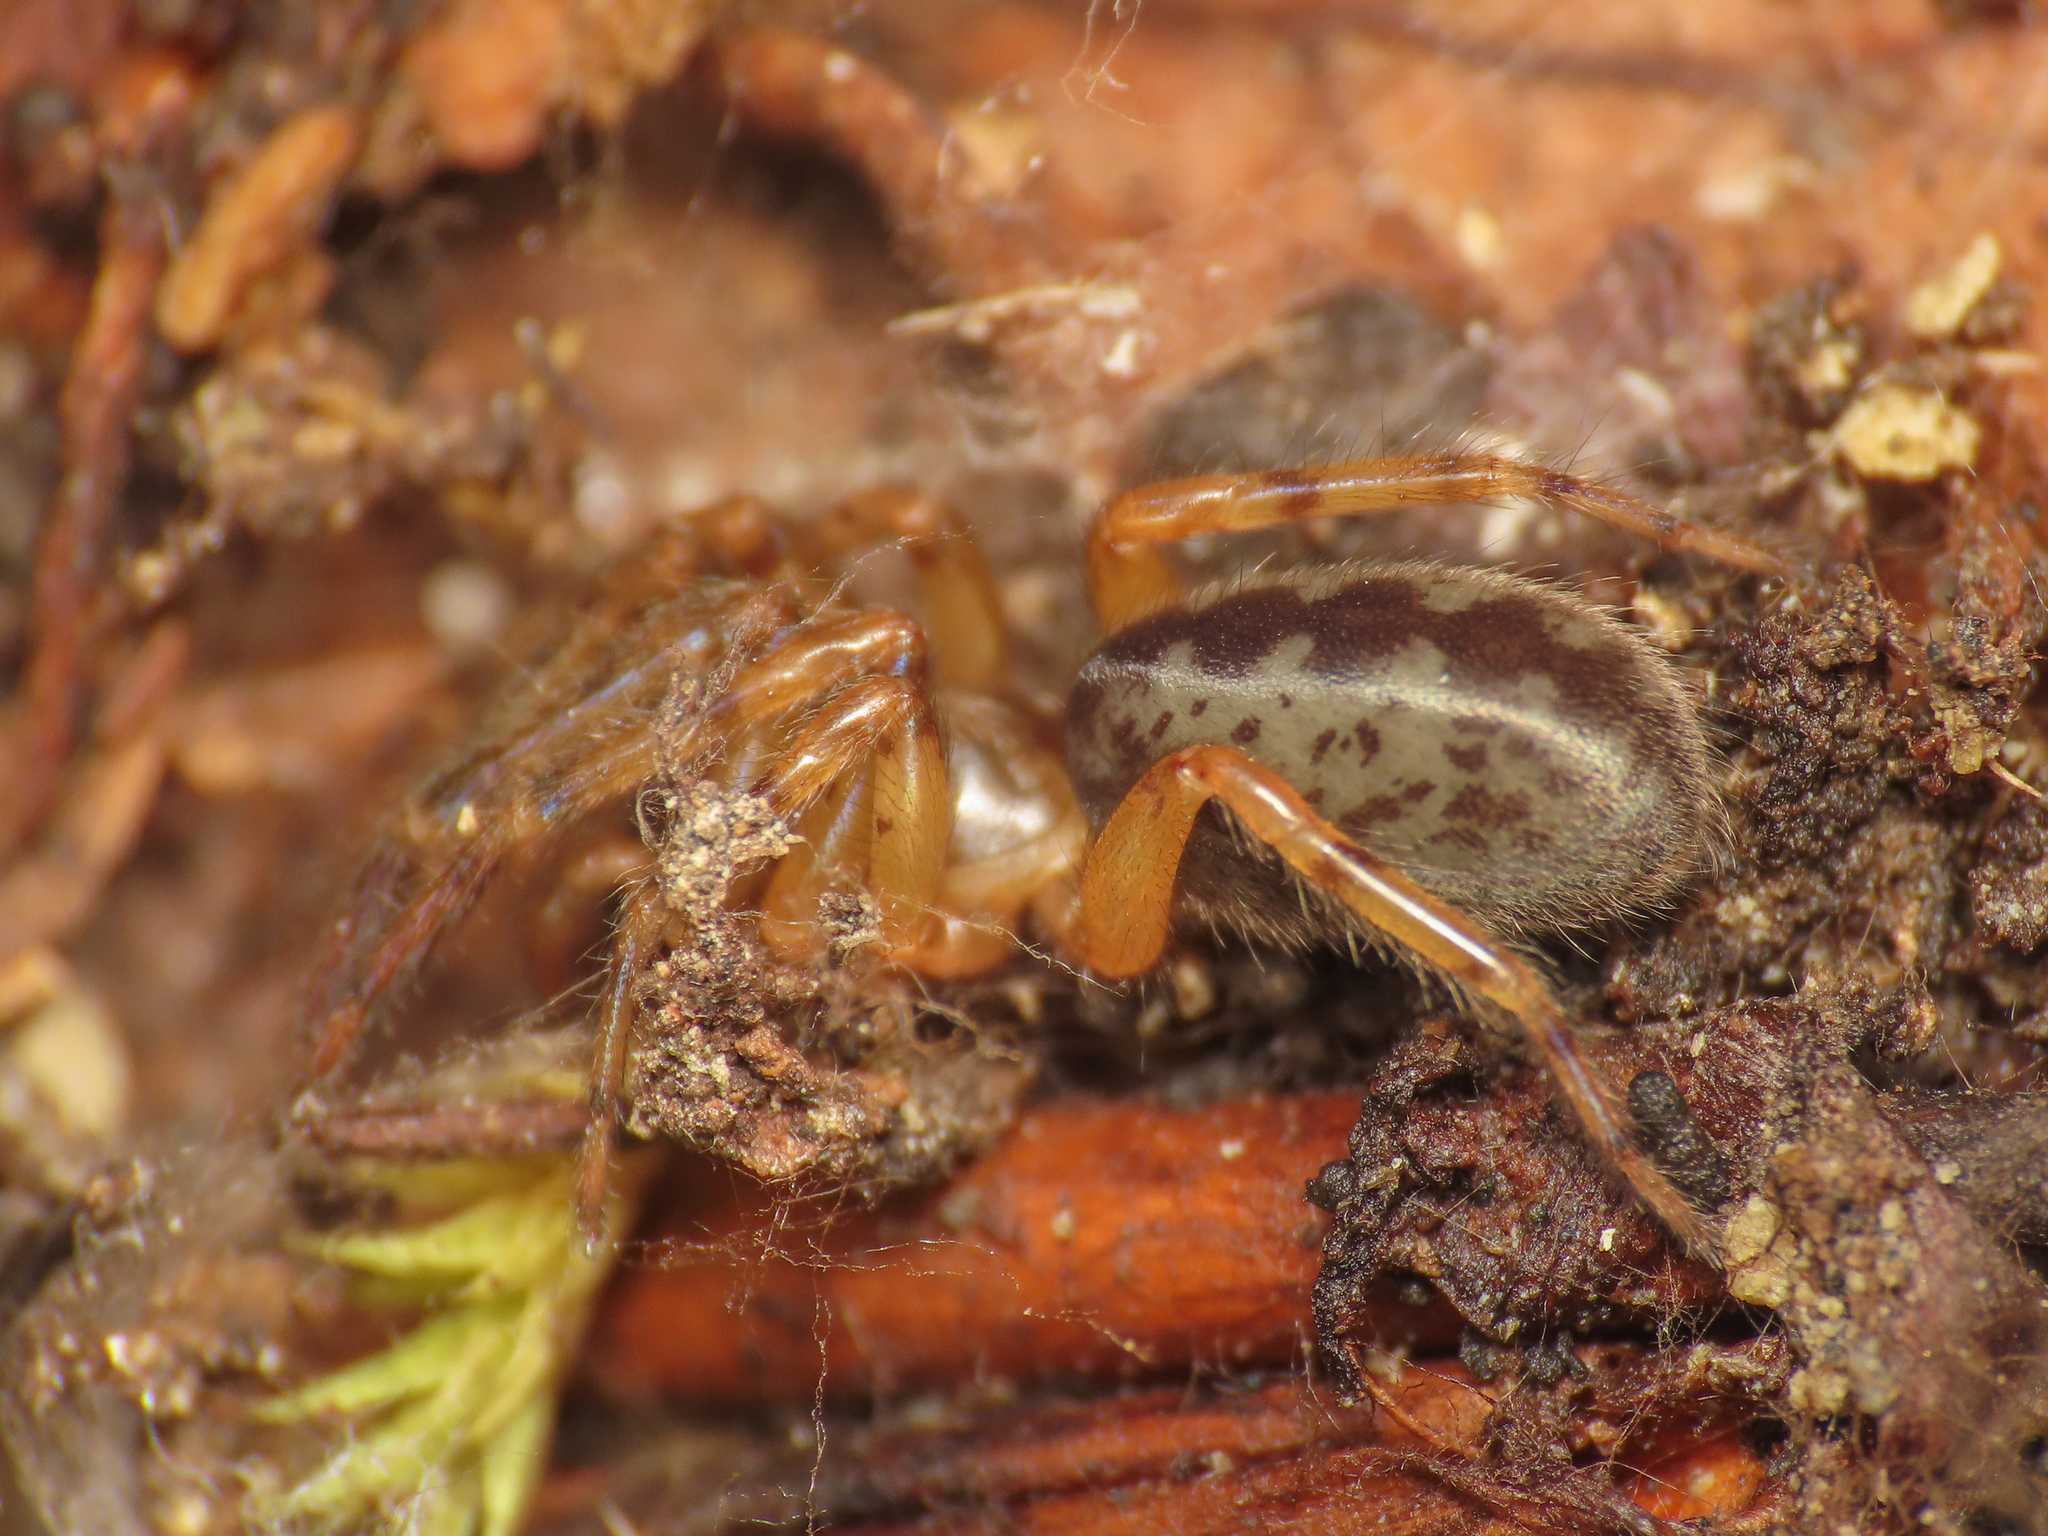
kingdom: Animalia
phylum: Arthropoda
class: Arachnida
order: Araneae
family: Segestriidae
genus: Segestria
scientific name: Segestria senoculata
